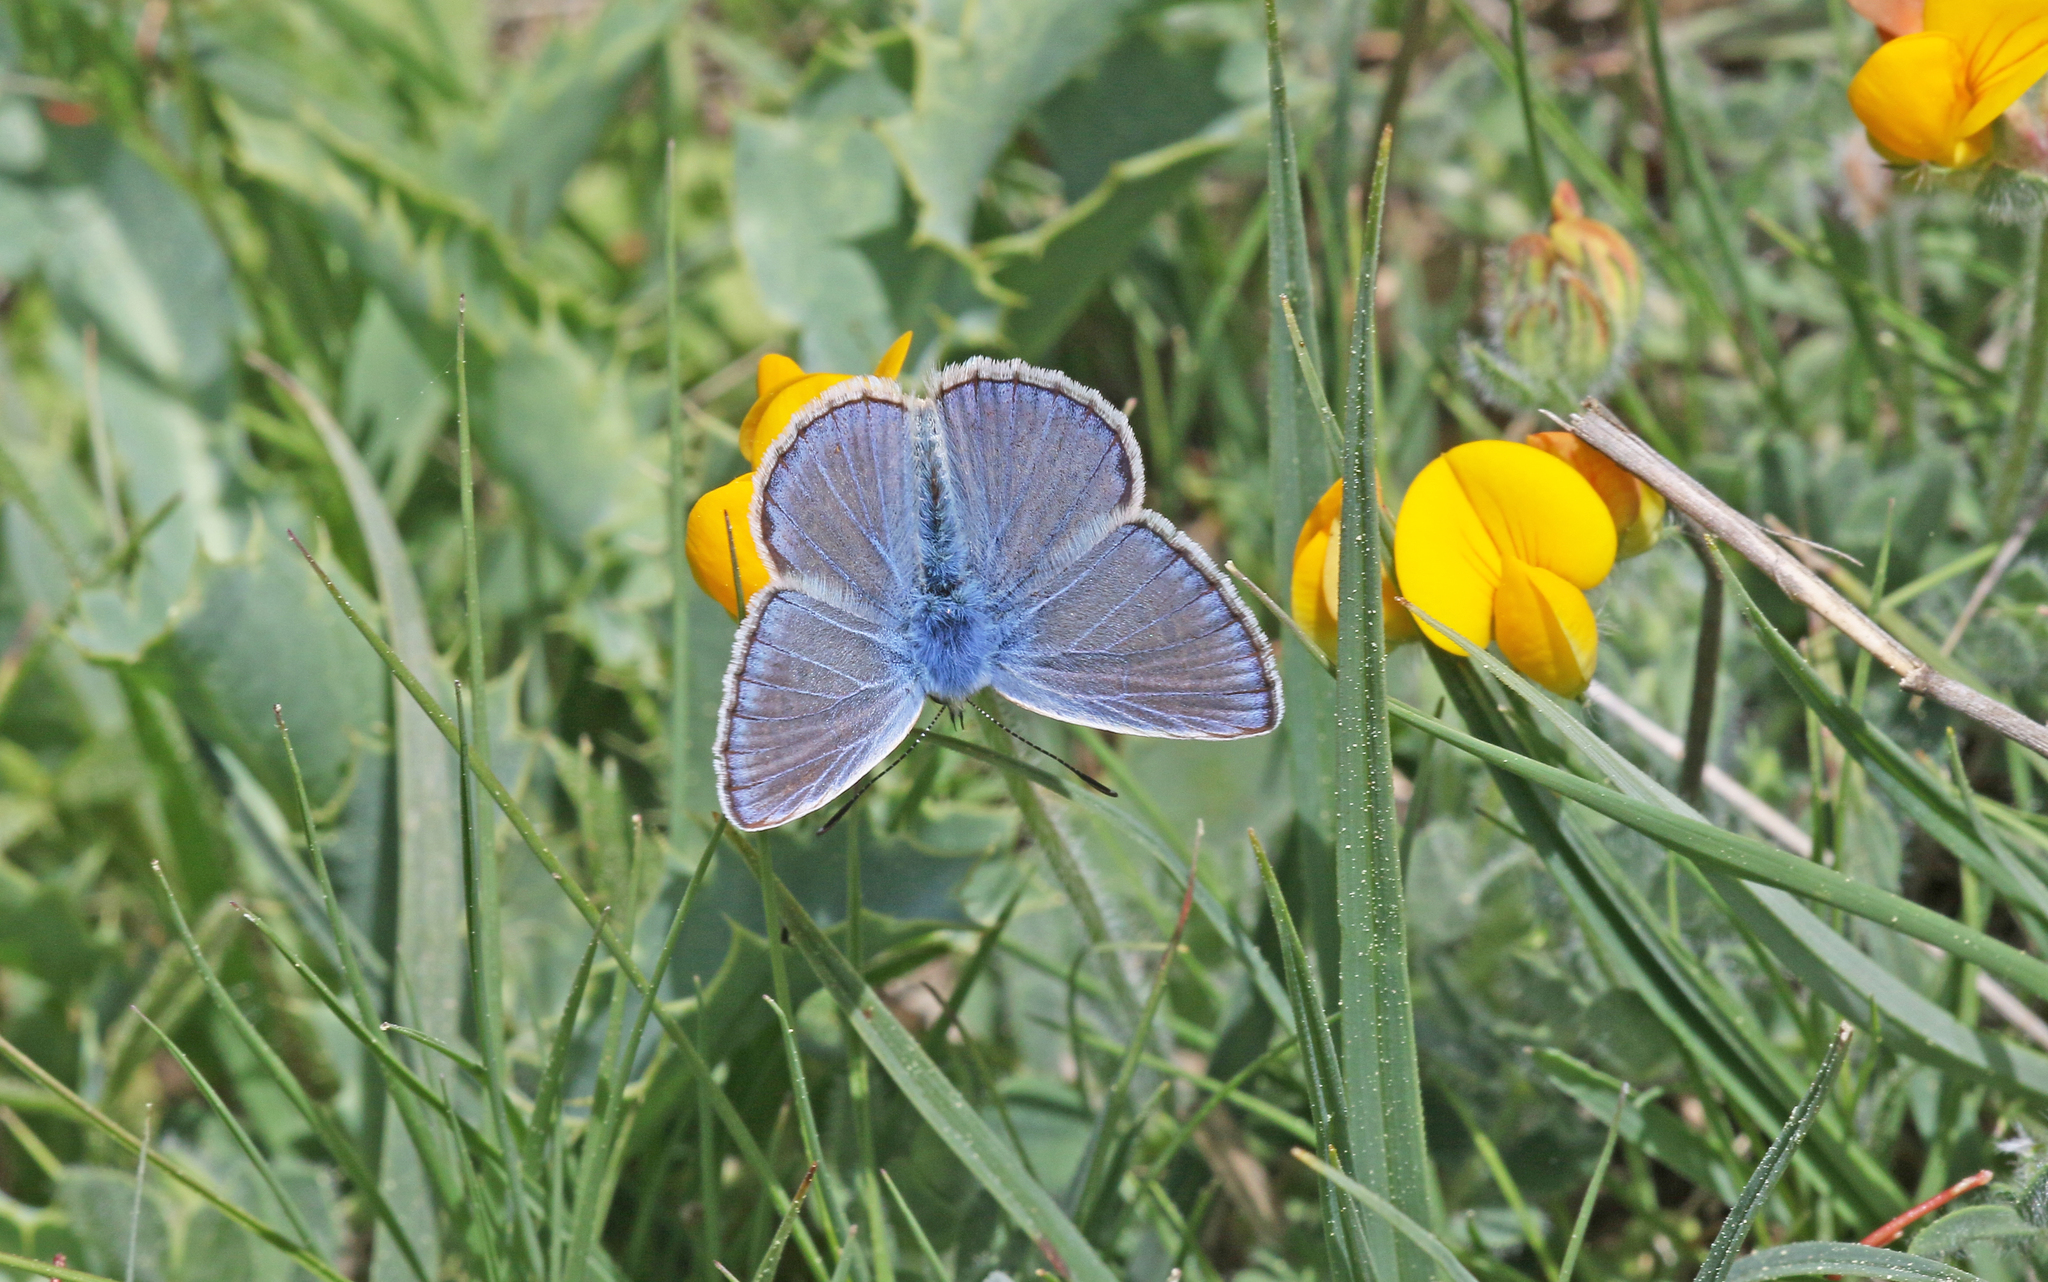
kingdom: Animalia
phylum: Arthropoda
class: Insecta
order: Lepidoptera
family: Lycaenidae
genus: Polyommatus
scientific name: Polyommatus celina
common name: Austaut's blue
